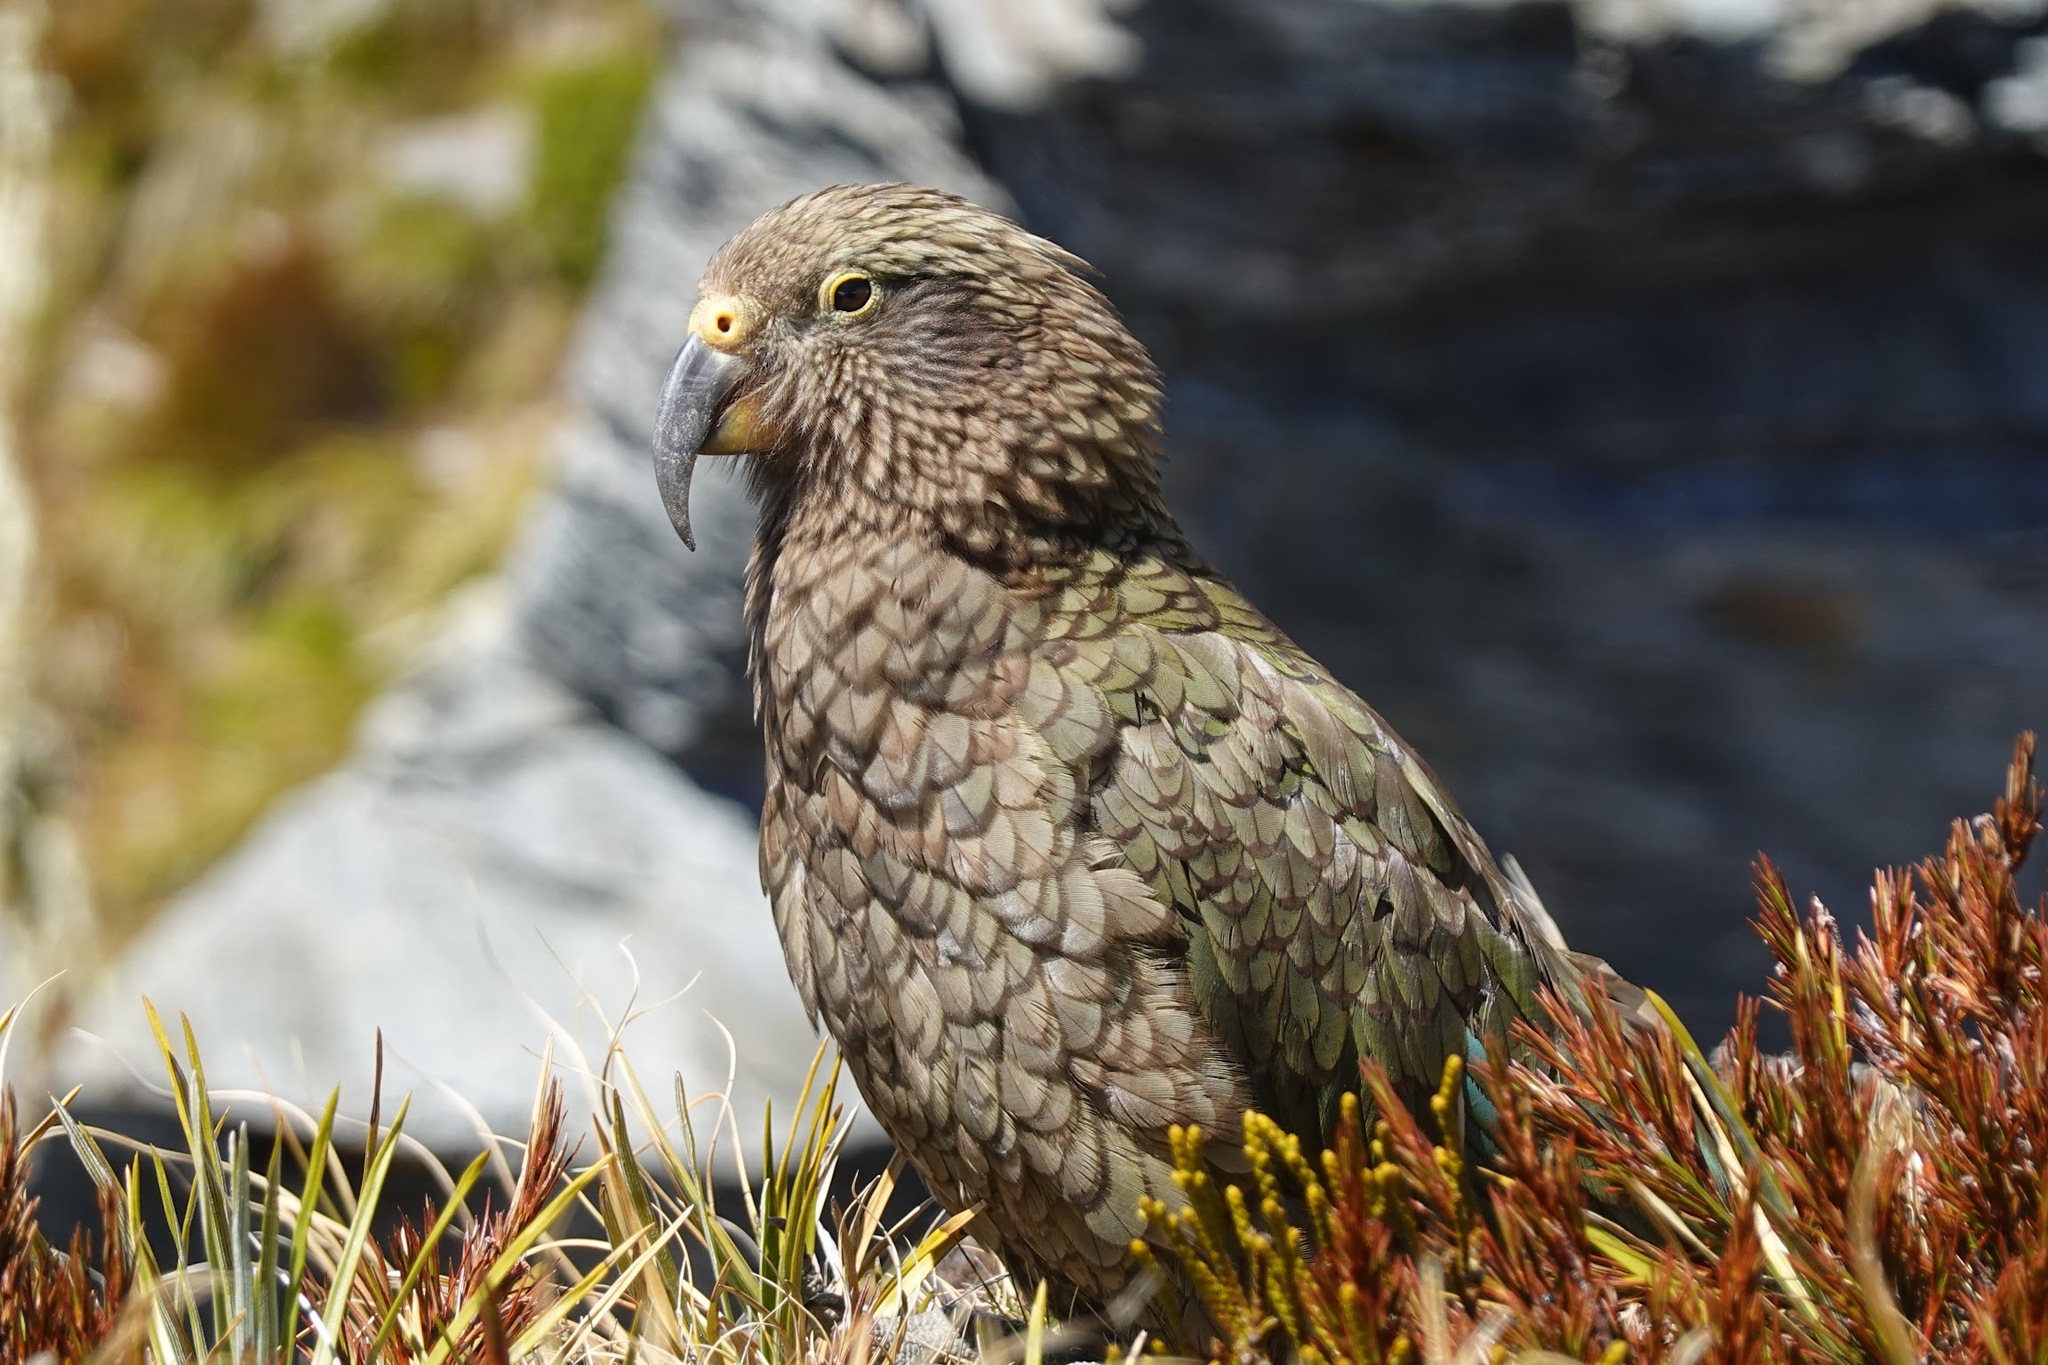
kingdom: Animalia
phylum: Chordata
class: Aves
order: Psittaciformes
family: Psittacidae
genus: Nestor
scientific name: Nestor notabilis
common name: Kea
